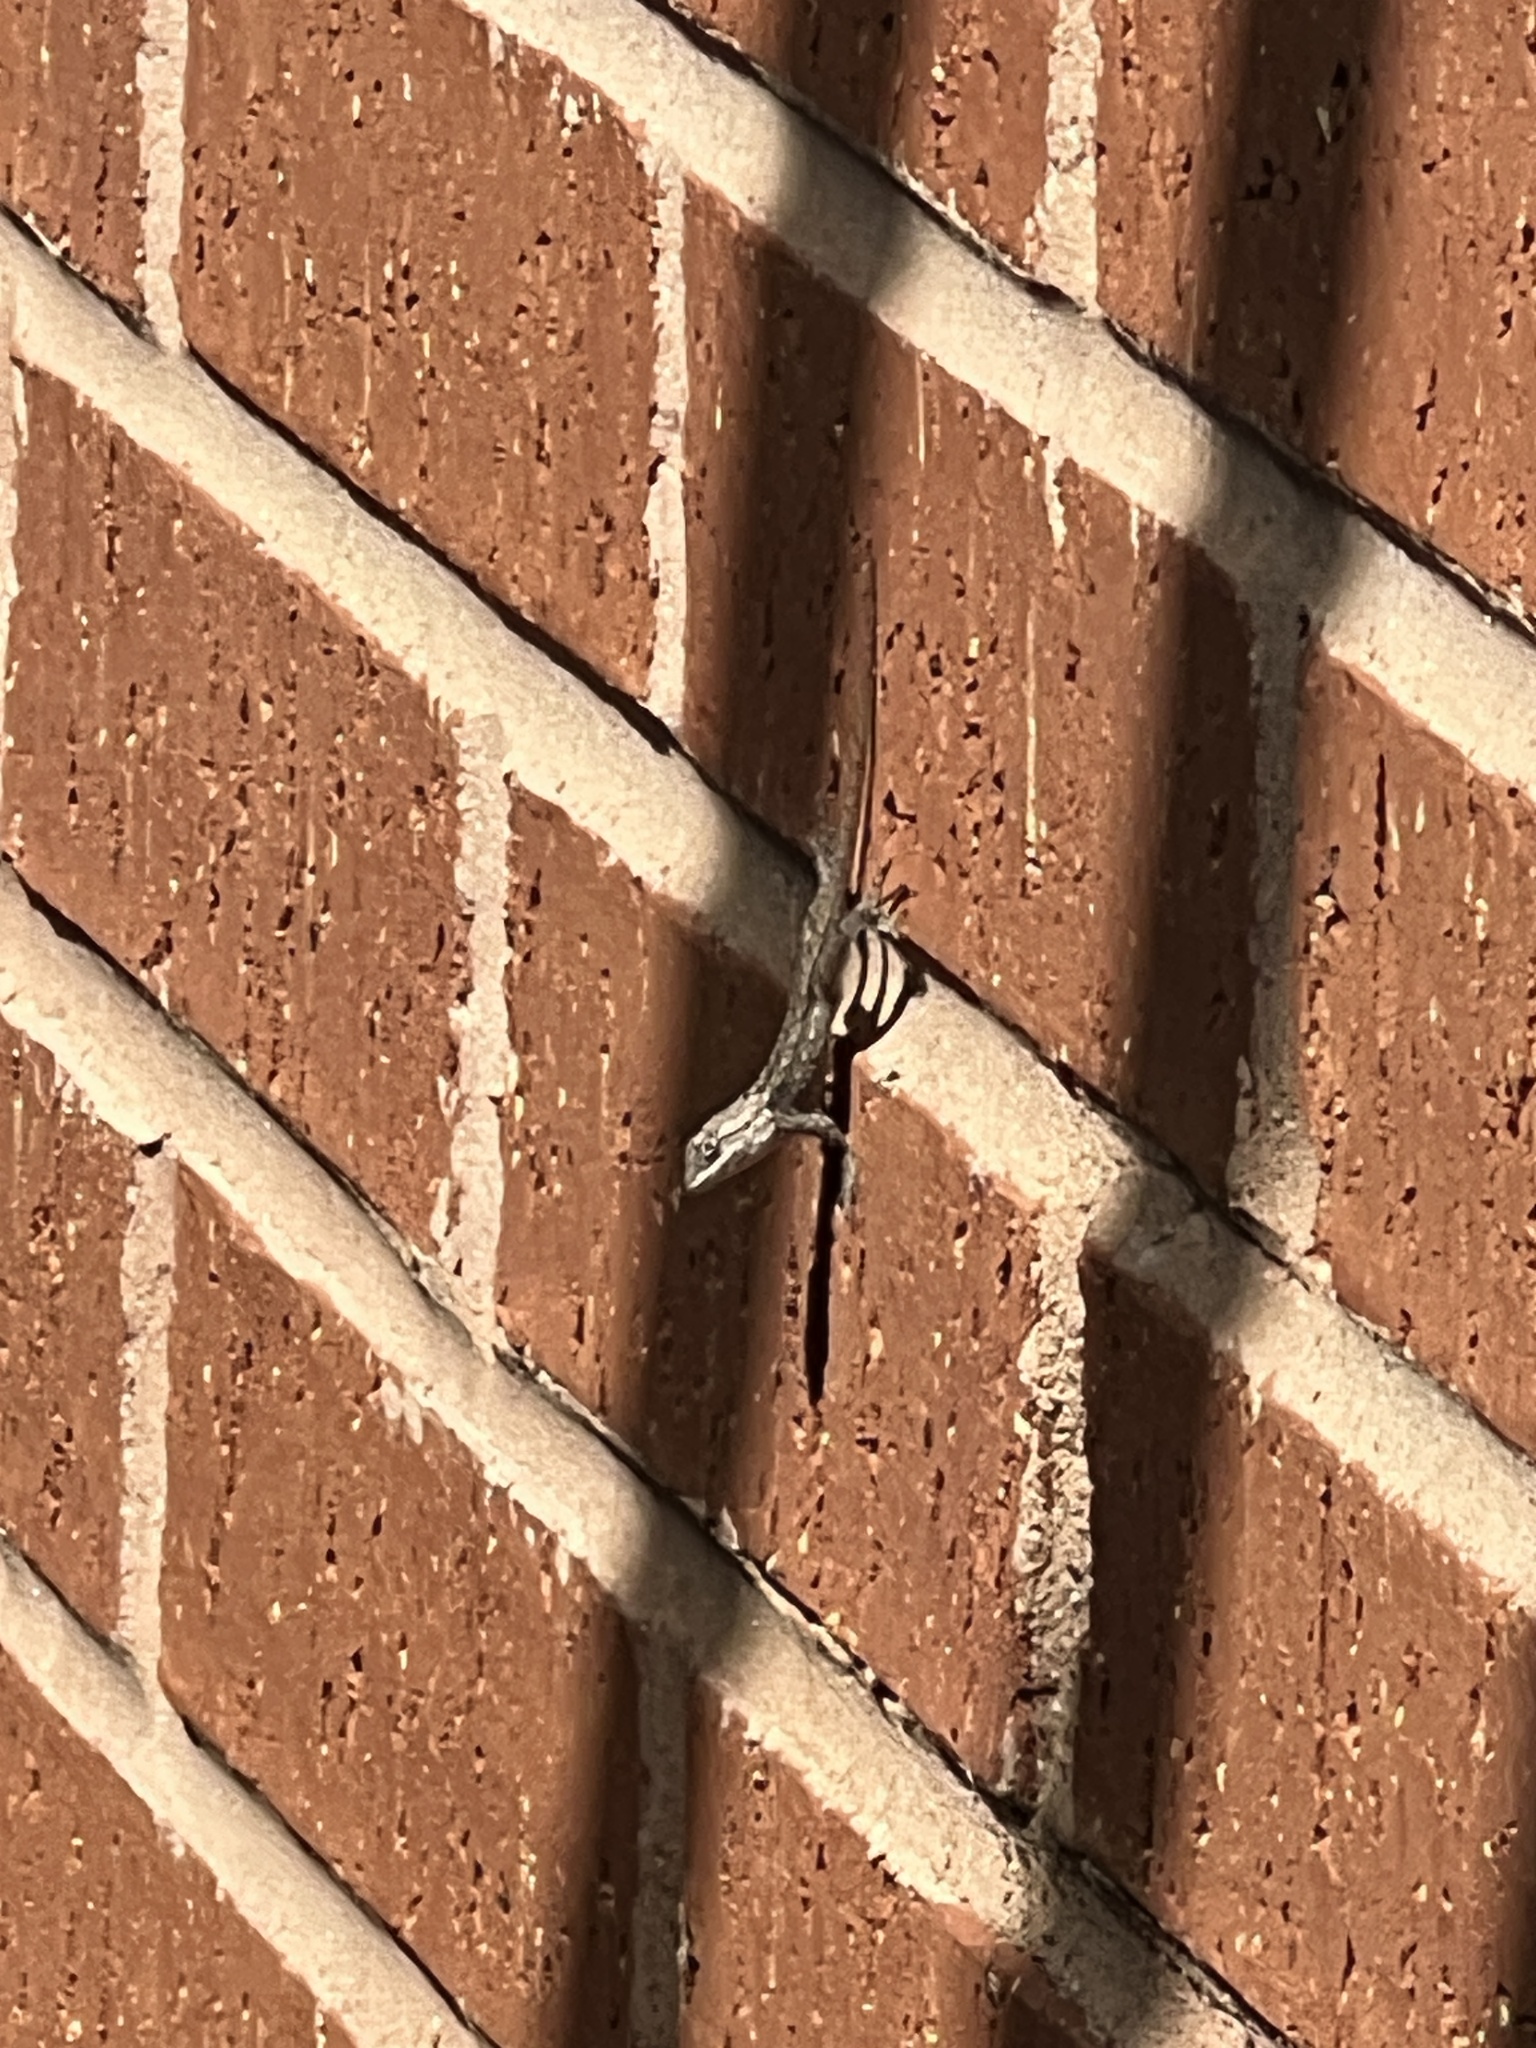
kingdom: Animalia
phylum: Chordata
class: Squamata
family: Phrynosomatidae
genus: Sceloporus
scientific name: Sceloporus olivaceus
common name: Texas spiny lizard
